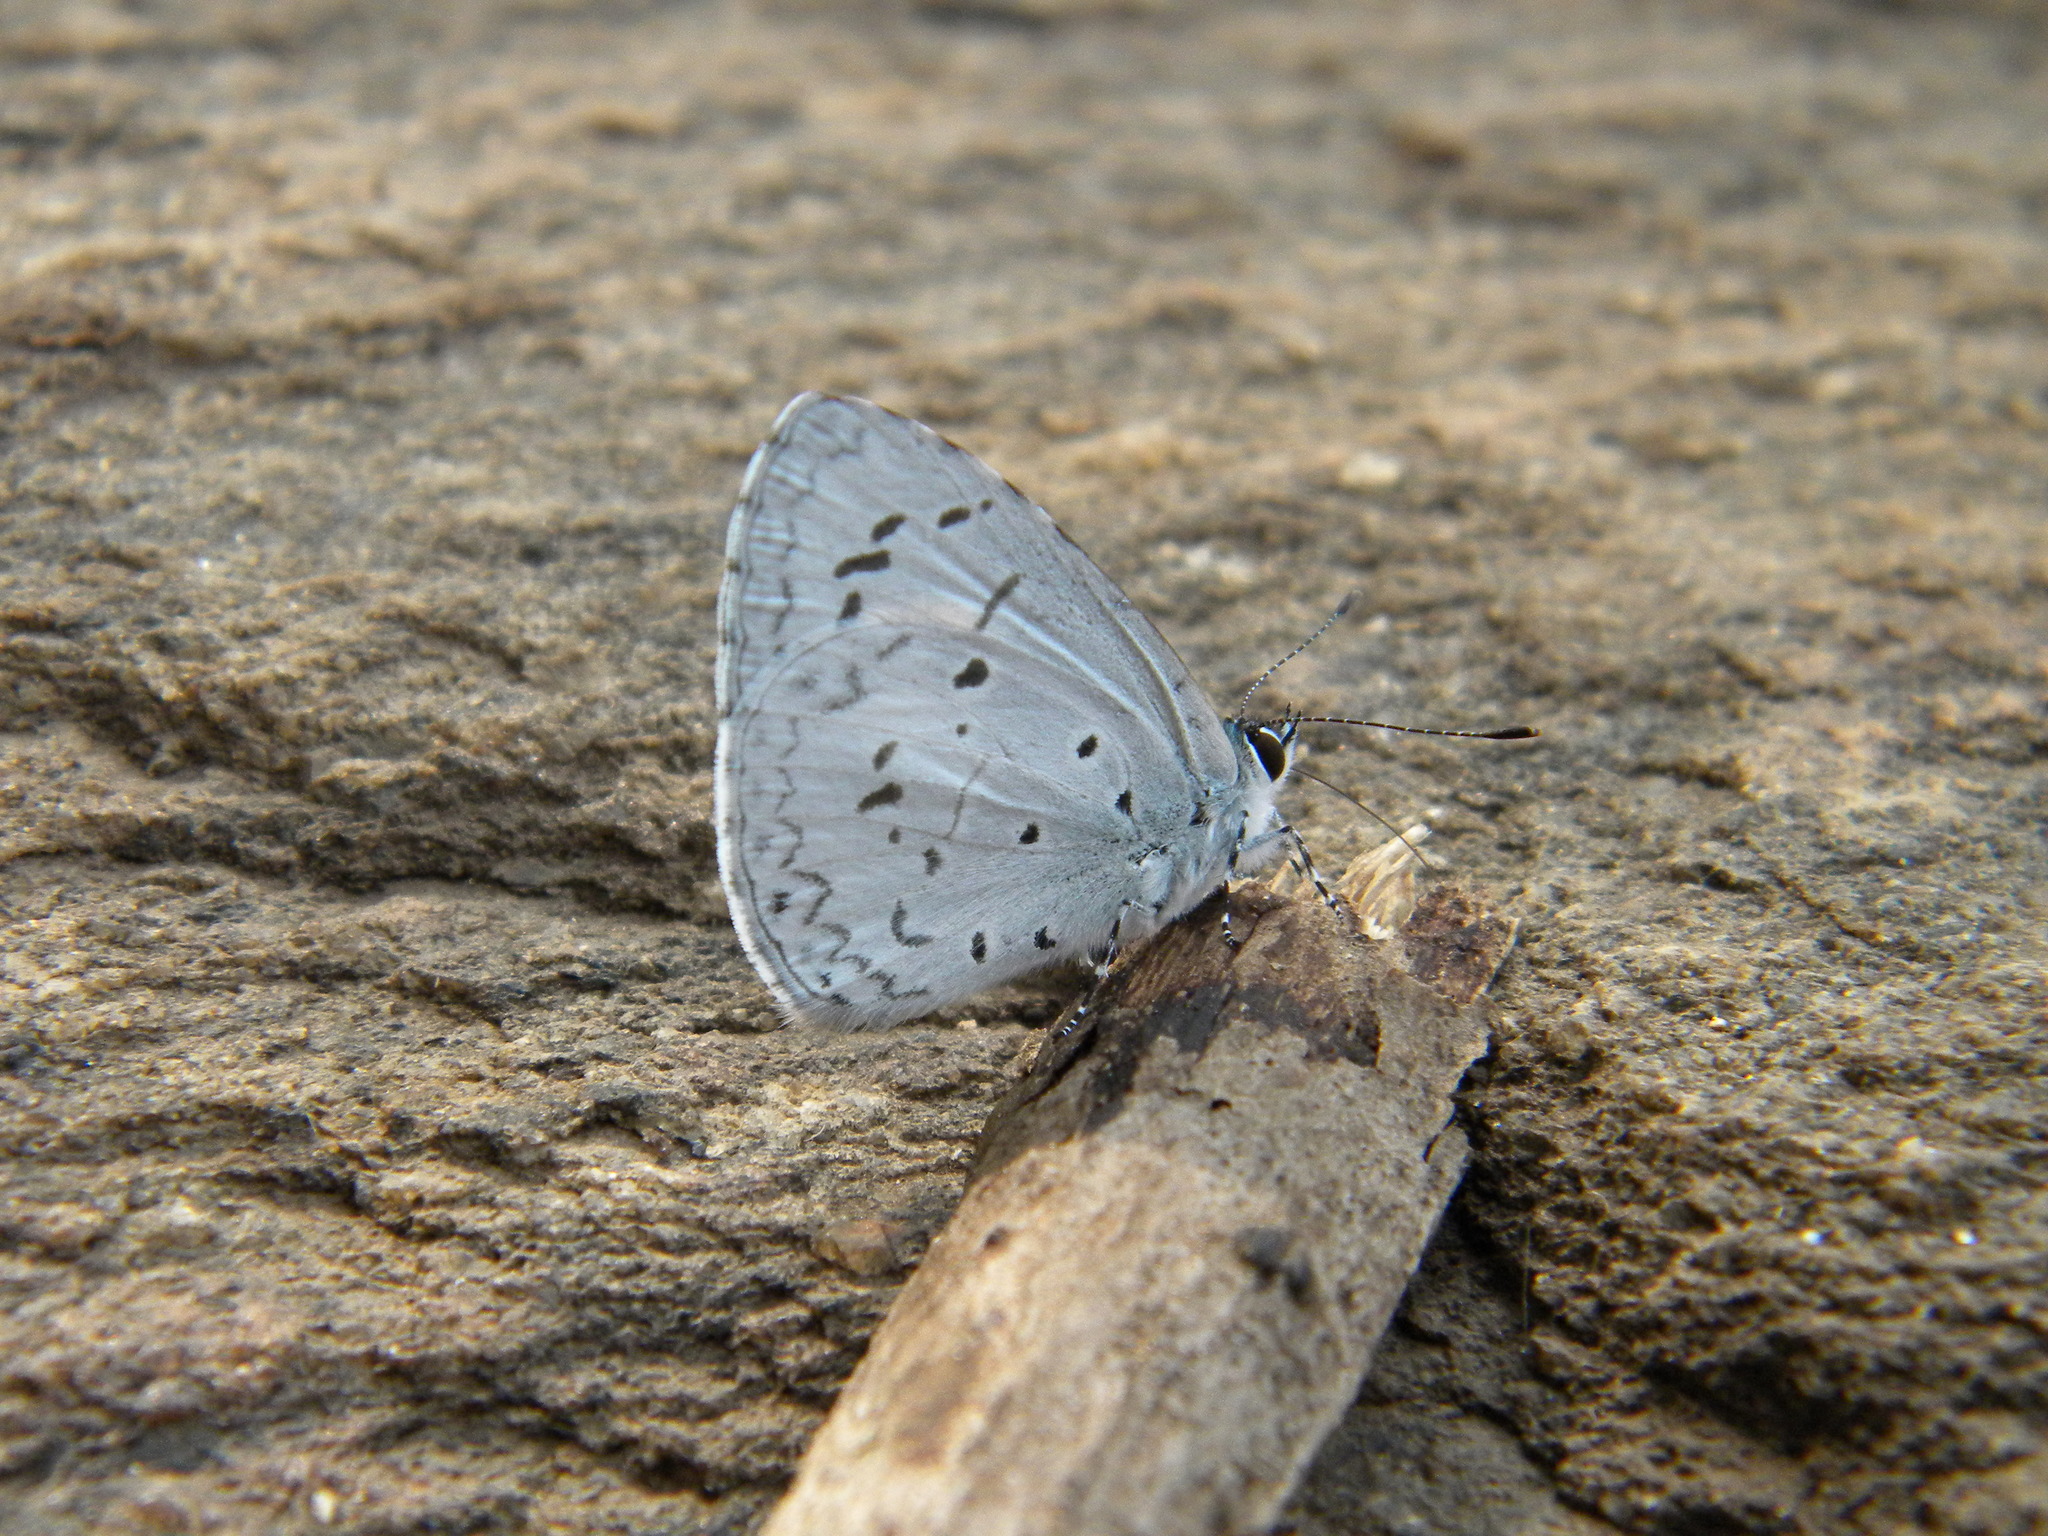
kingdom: Animalia
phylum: Arthropoda
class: Insecta
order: Lepidoptera
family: Lycaenidae
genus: Acytolepis
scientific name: Acytolepis puspa
